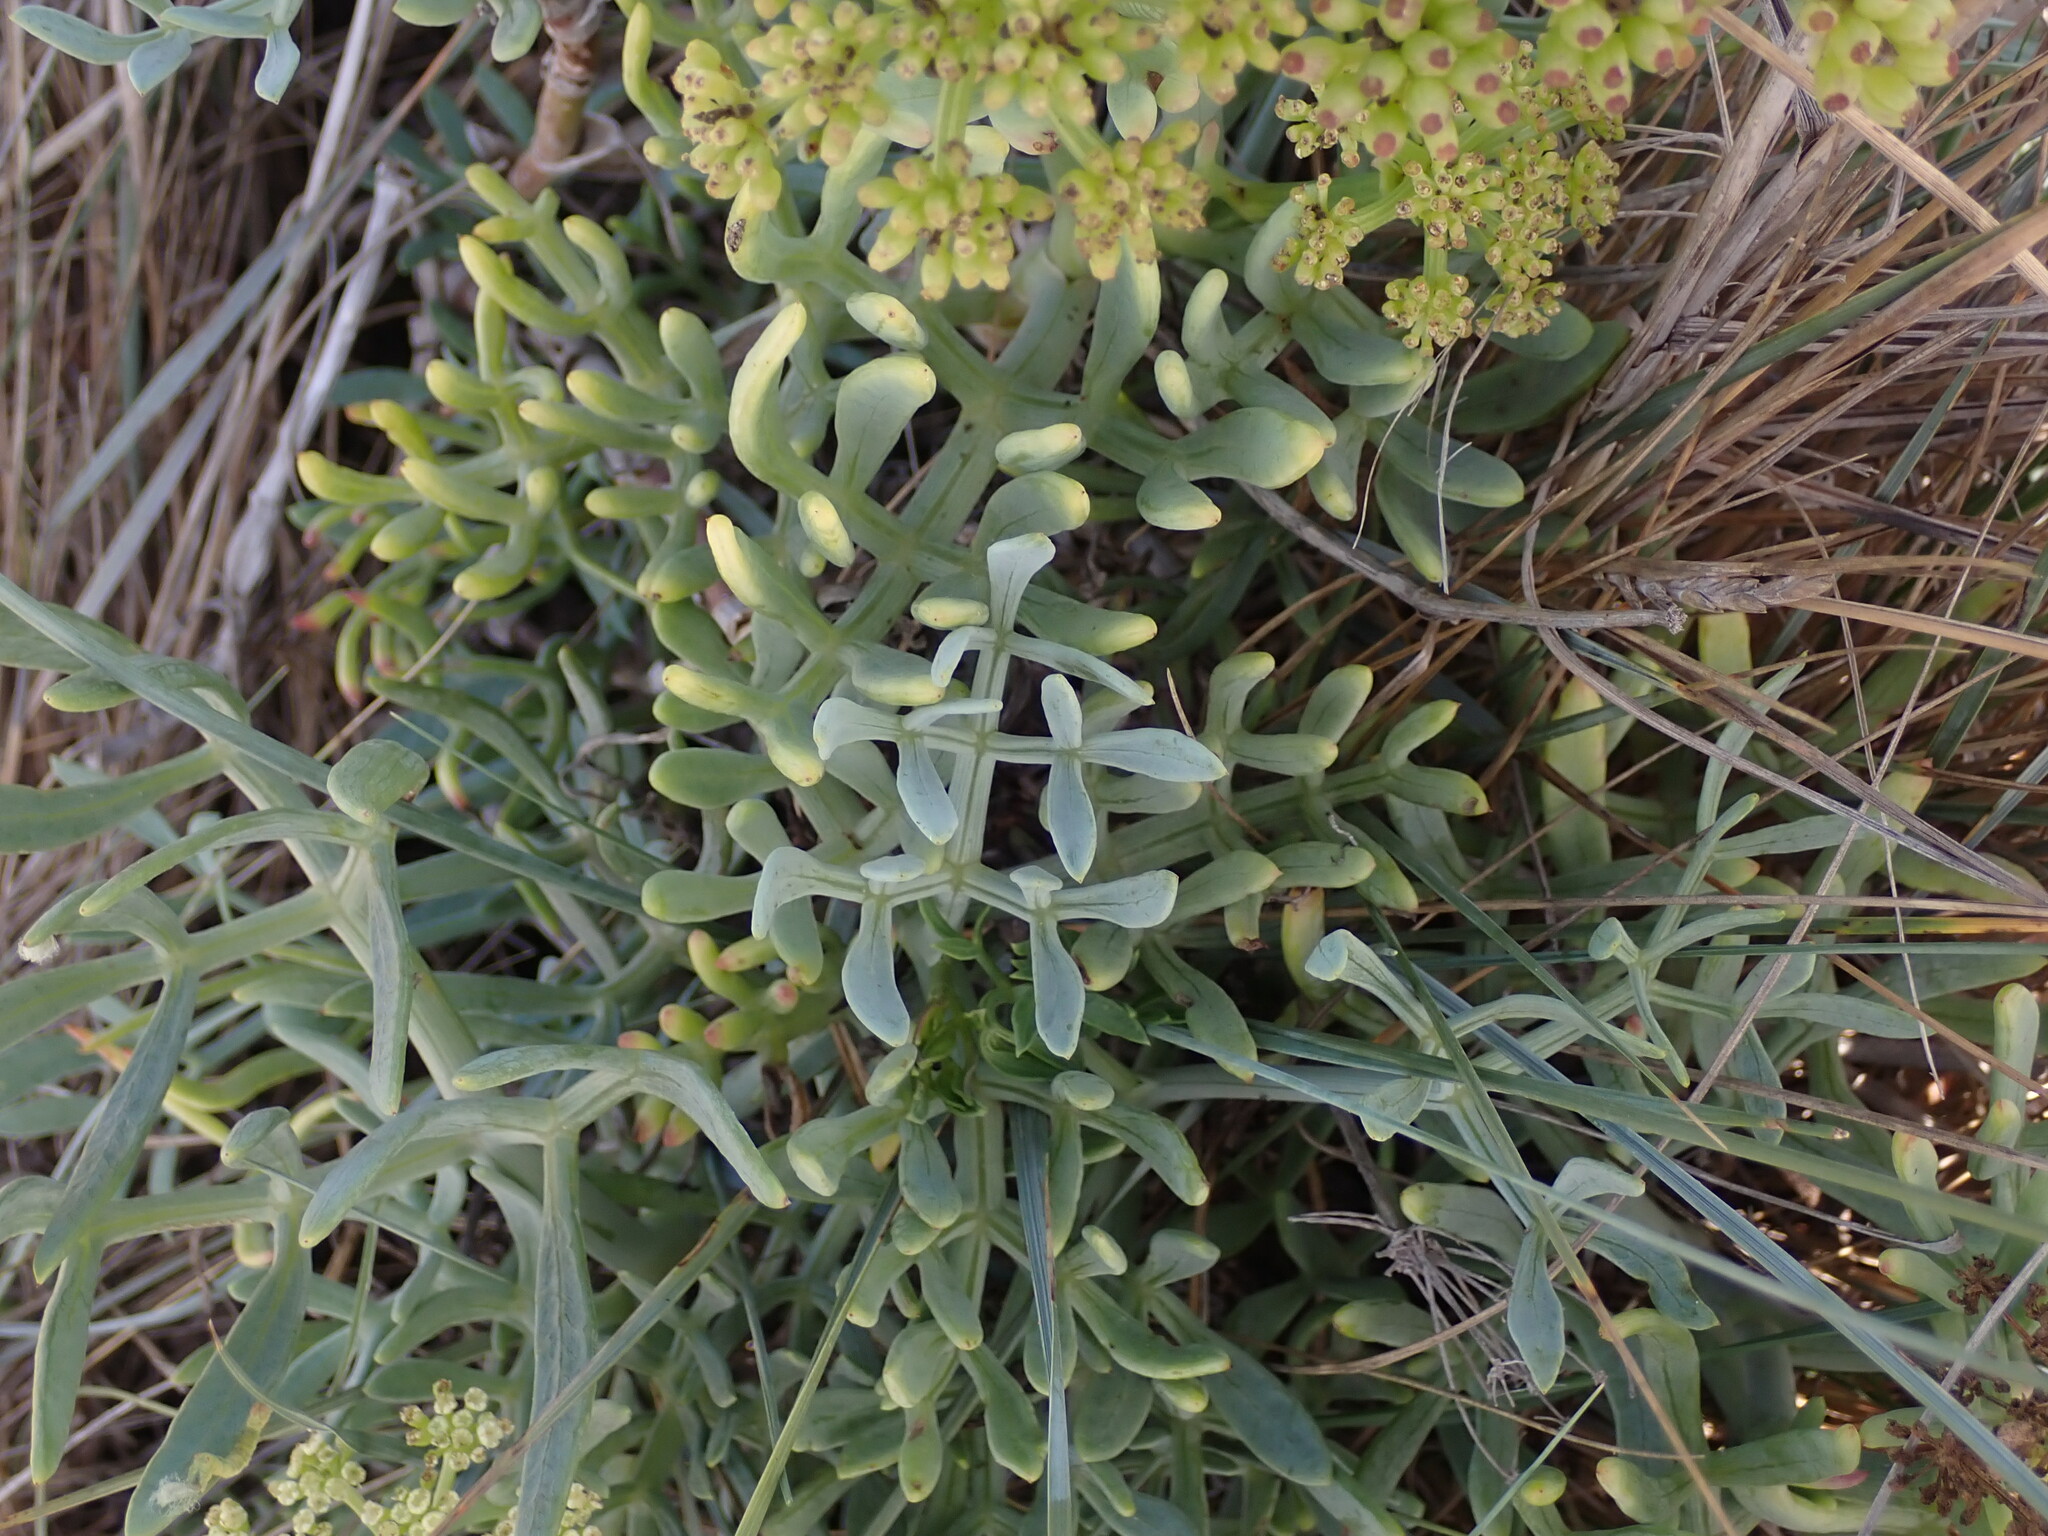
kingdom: Plantae
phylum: Tracheophyta
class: Magnoliopsida
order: Apiales
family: Apiaceae
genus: Crithmum
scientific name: Crithmum maritimum
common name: Rock samphire
